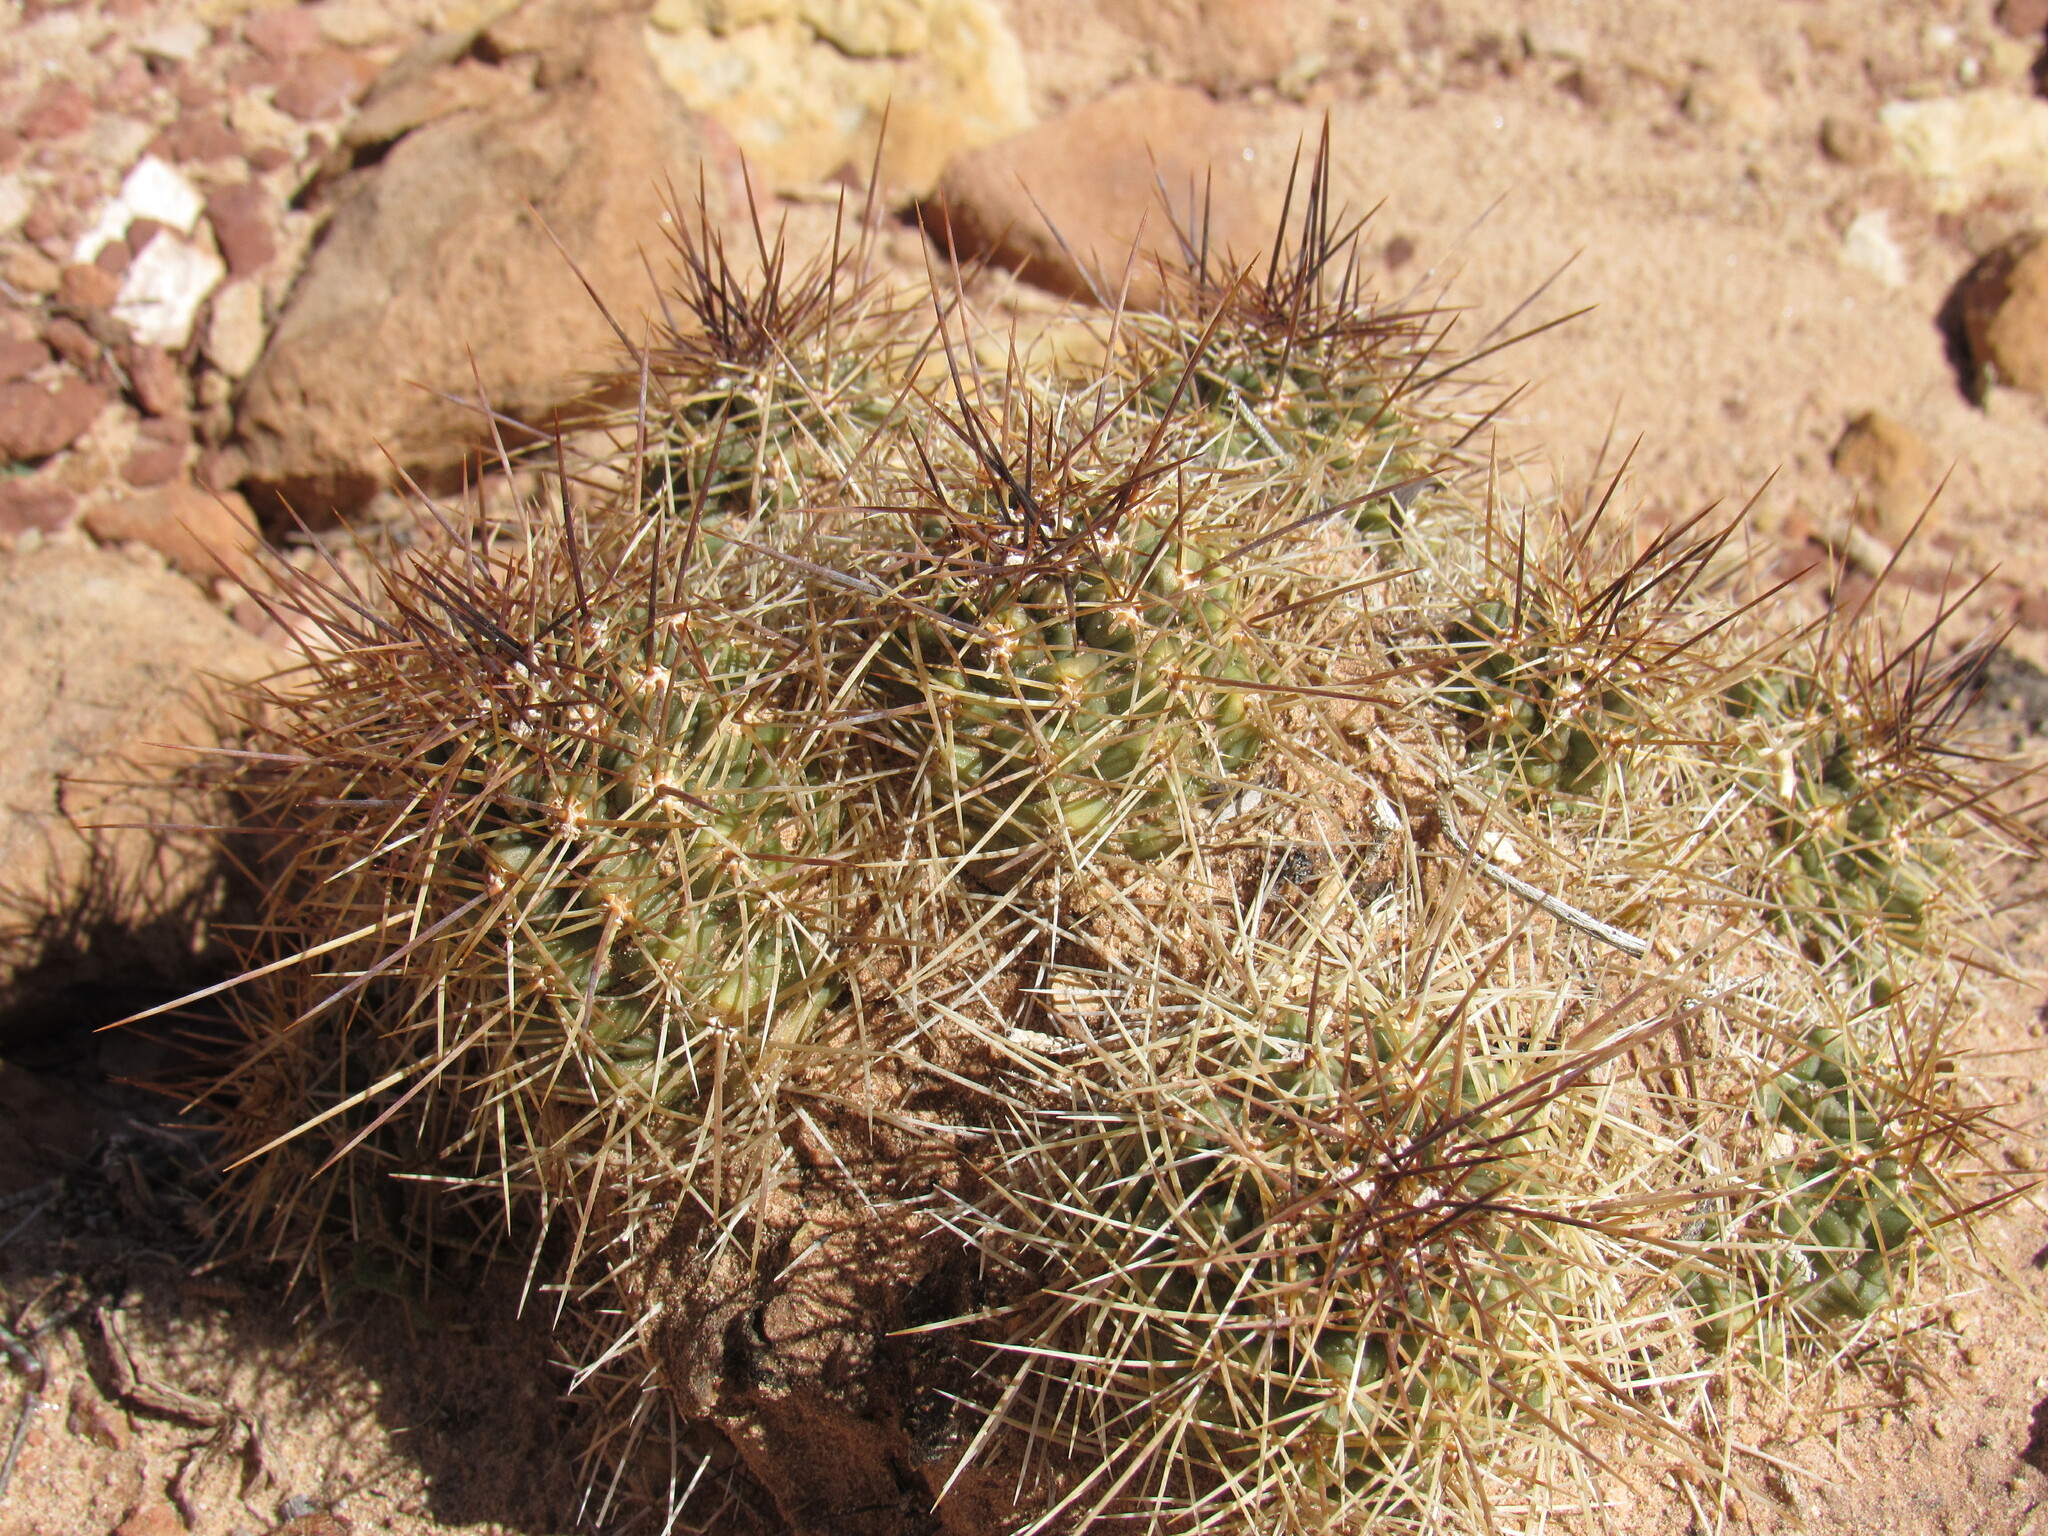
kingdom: Plantae
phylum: Tracheophyta
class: Magnoliopsida
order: Caryophyllales
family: Cactaceae
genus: Echinocereus
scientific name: Echinocereus triglochidiatus
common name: Claretcup hedgehog
